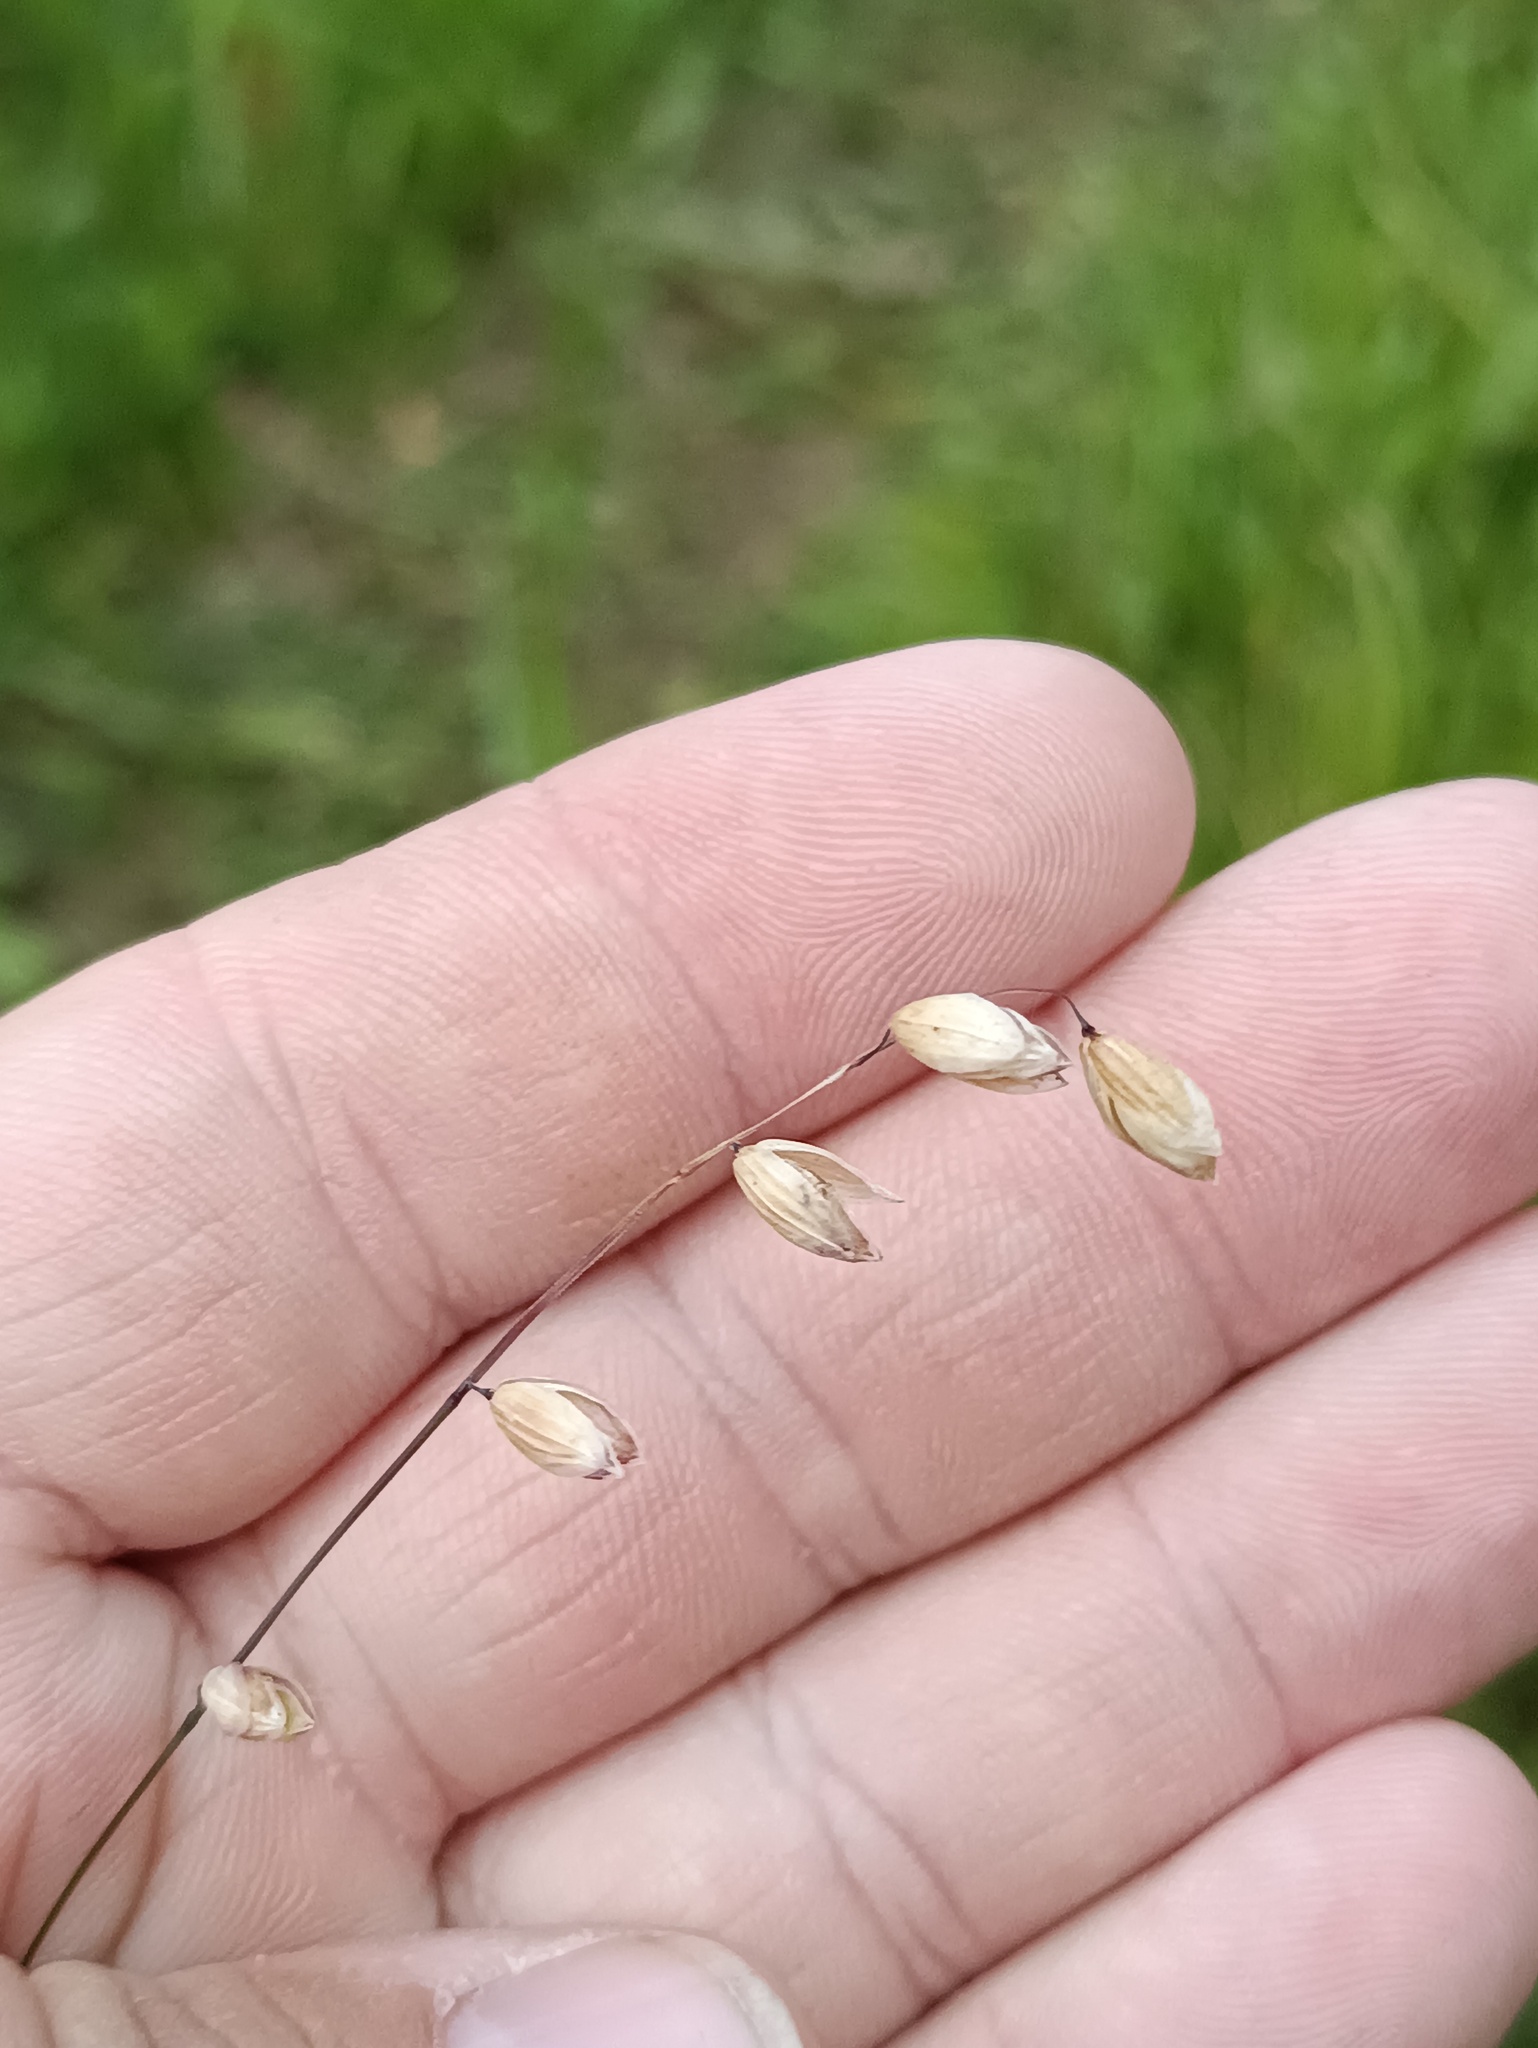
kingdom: Plantae
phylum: Tracheophyta
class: Liliopsida
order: Poales
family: Poaceae
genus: Melica
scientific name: Melica nutans
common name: Mountain melick
